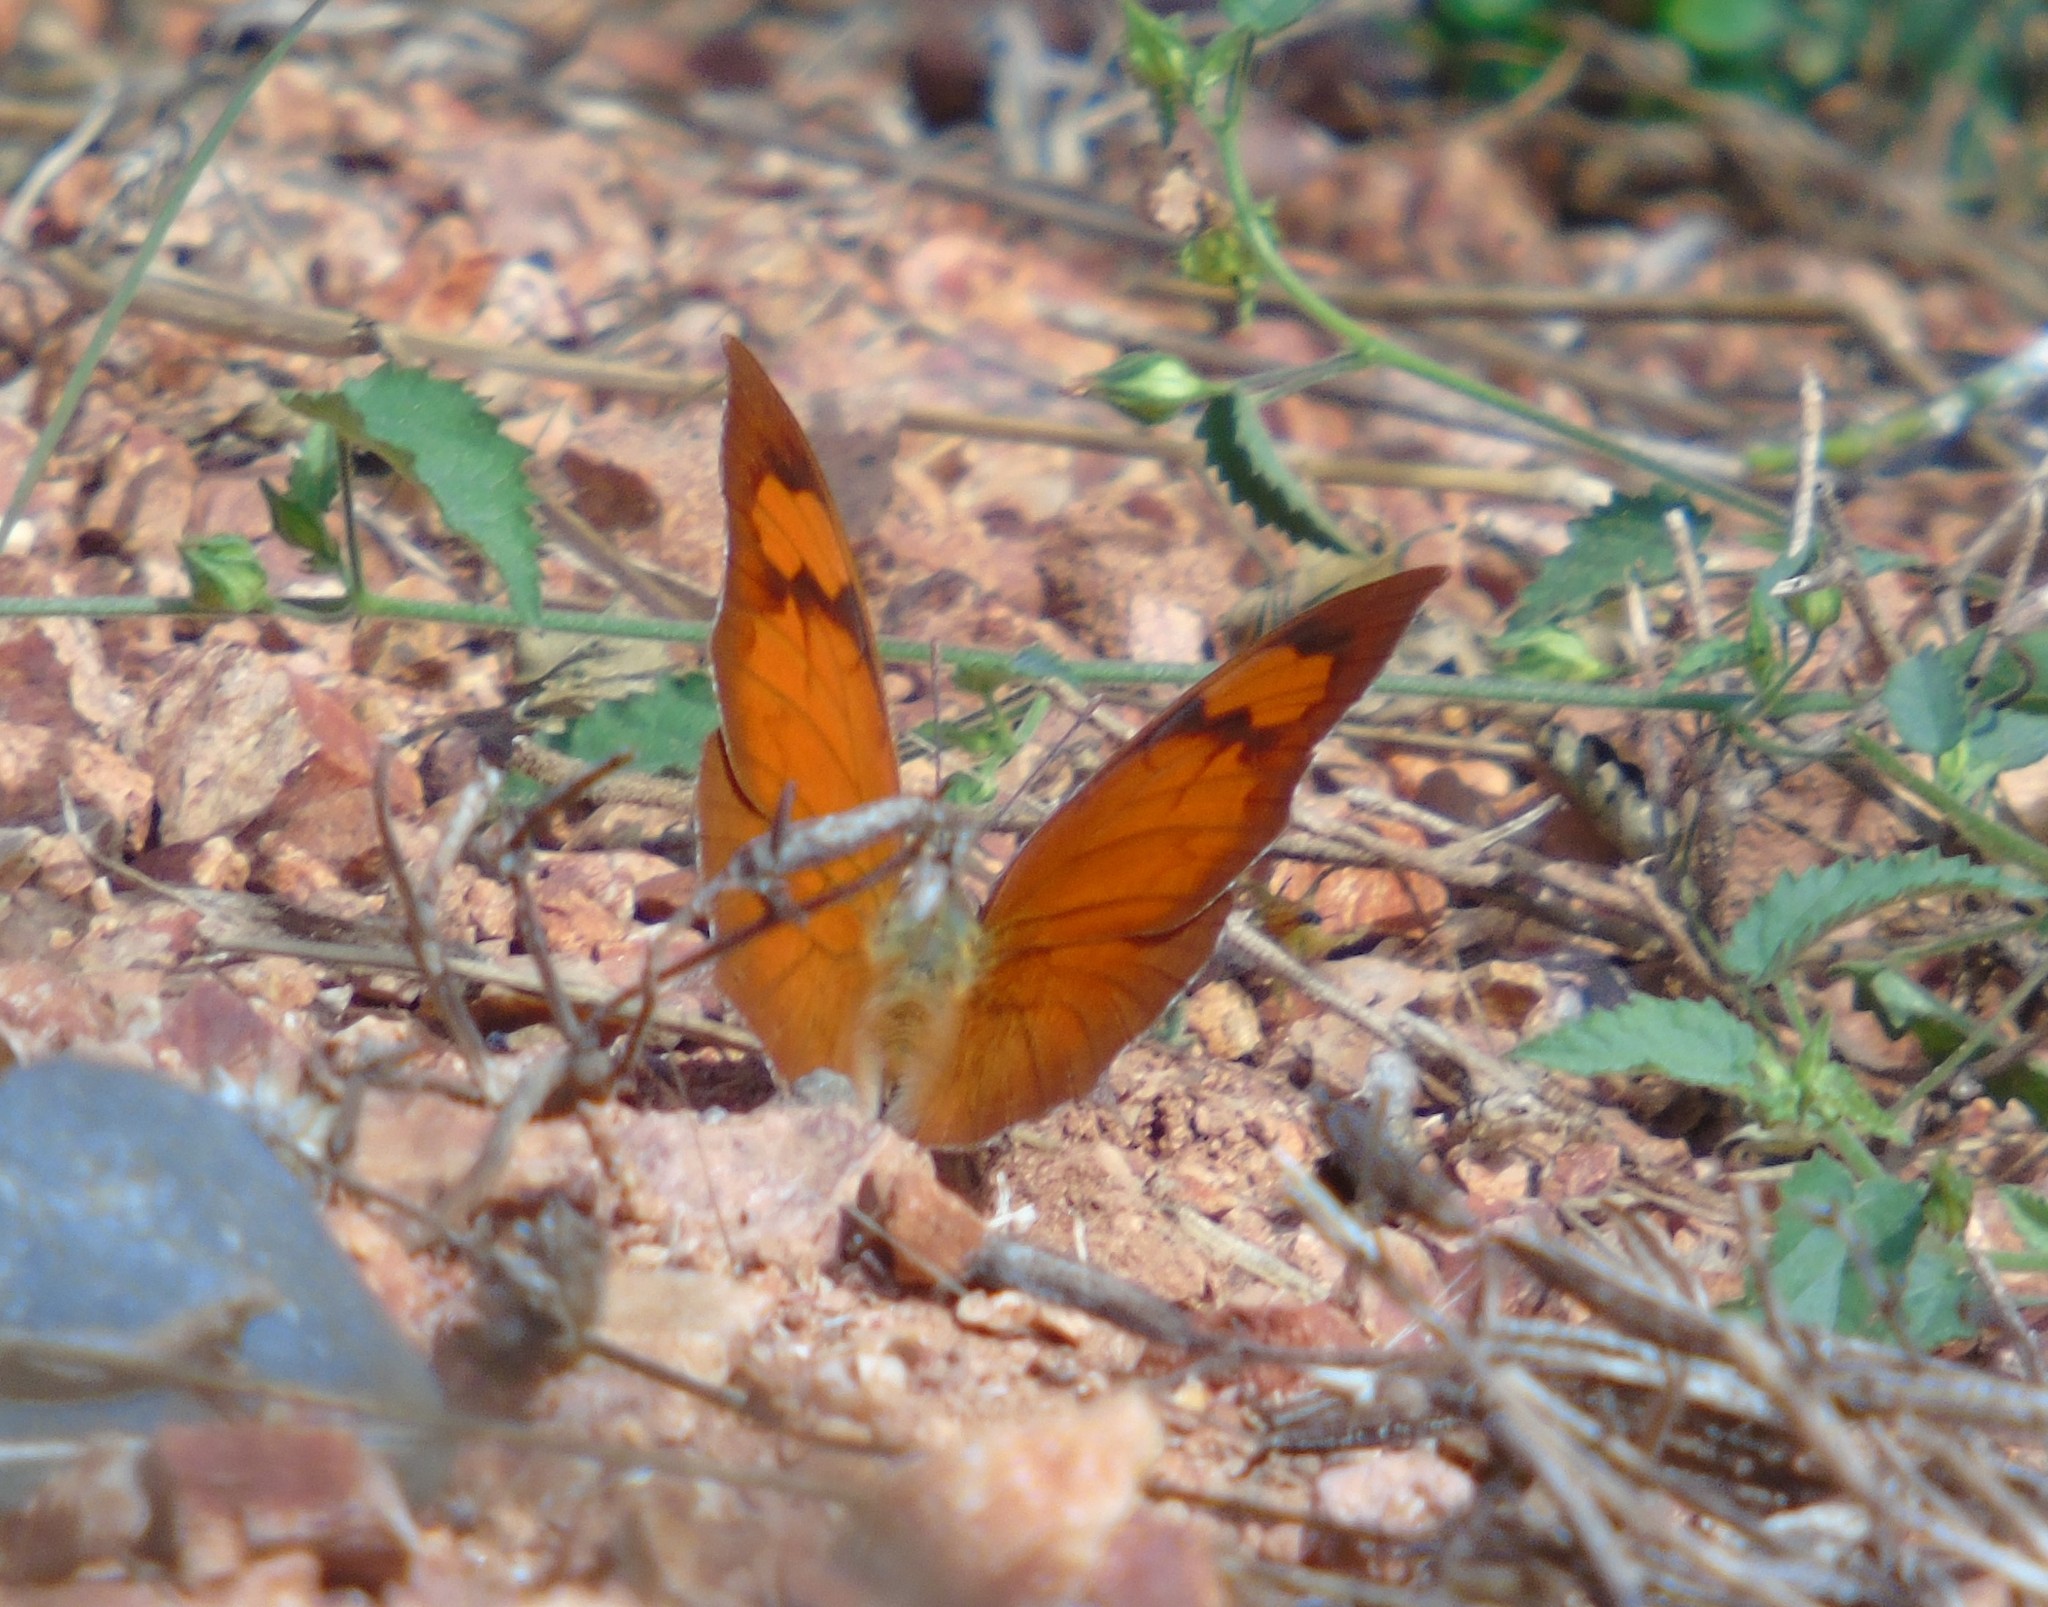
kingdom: Animalia
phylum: Arthropoda
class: Insecta
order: Lepidoptera
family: Nymphalidae
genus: Fountainea
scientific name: Fountainea
